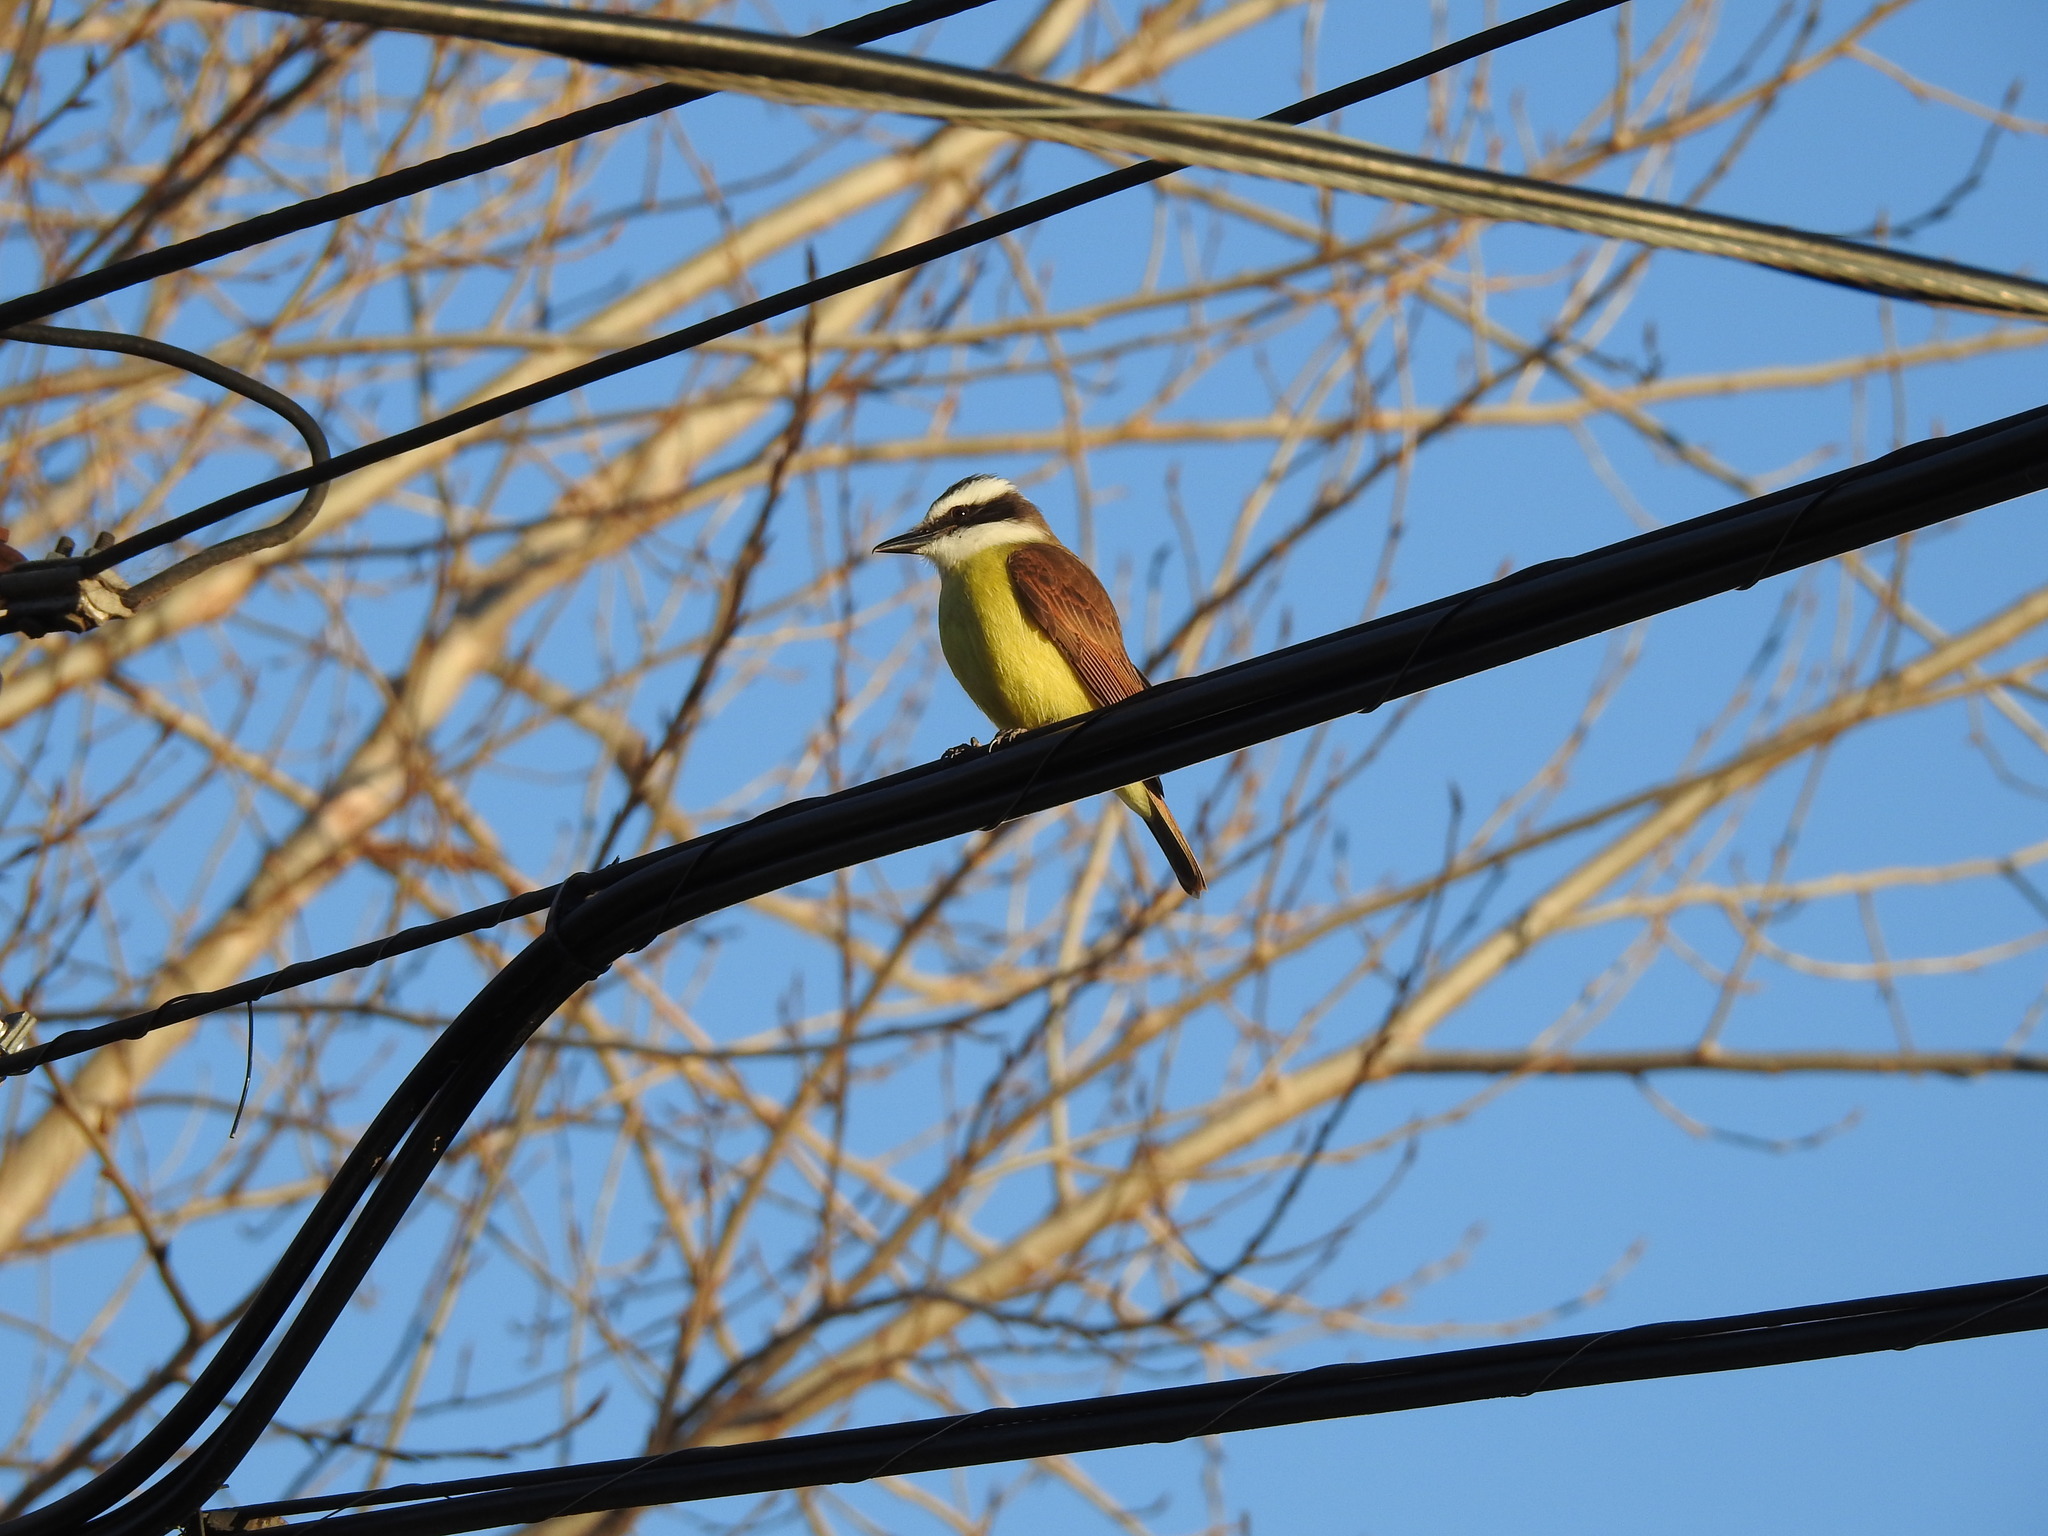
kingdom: Animalia
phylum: Chordata
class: Aves
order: Passeriformes
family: Tyrannidae
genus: Pitangus
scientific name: Pitangus sulphuratus
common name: Great kiskadee
